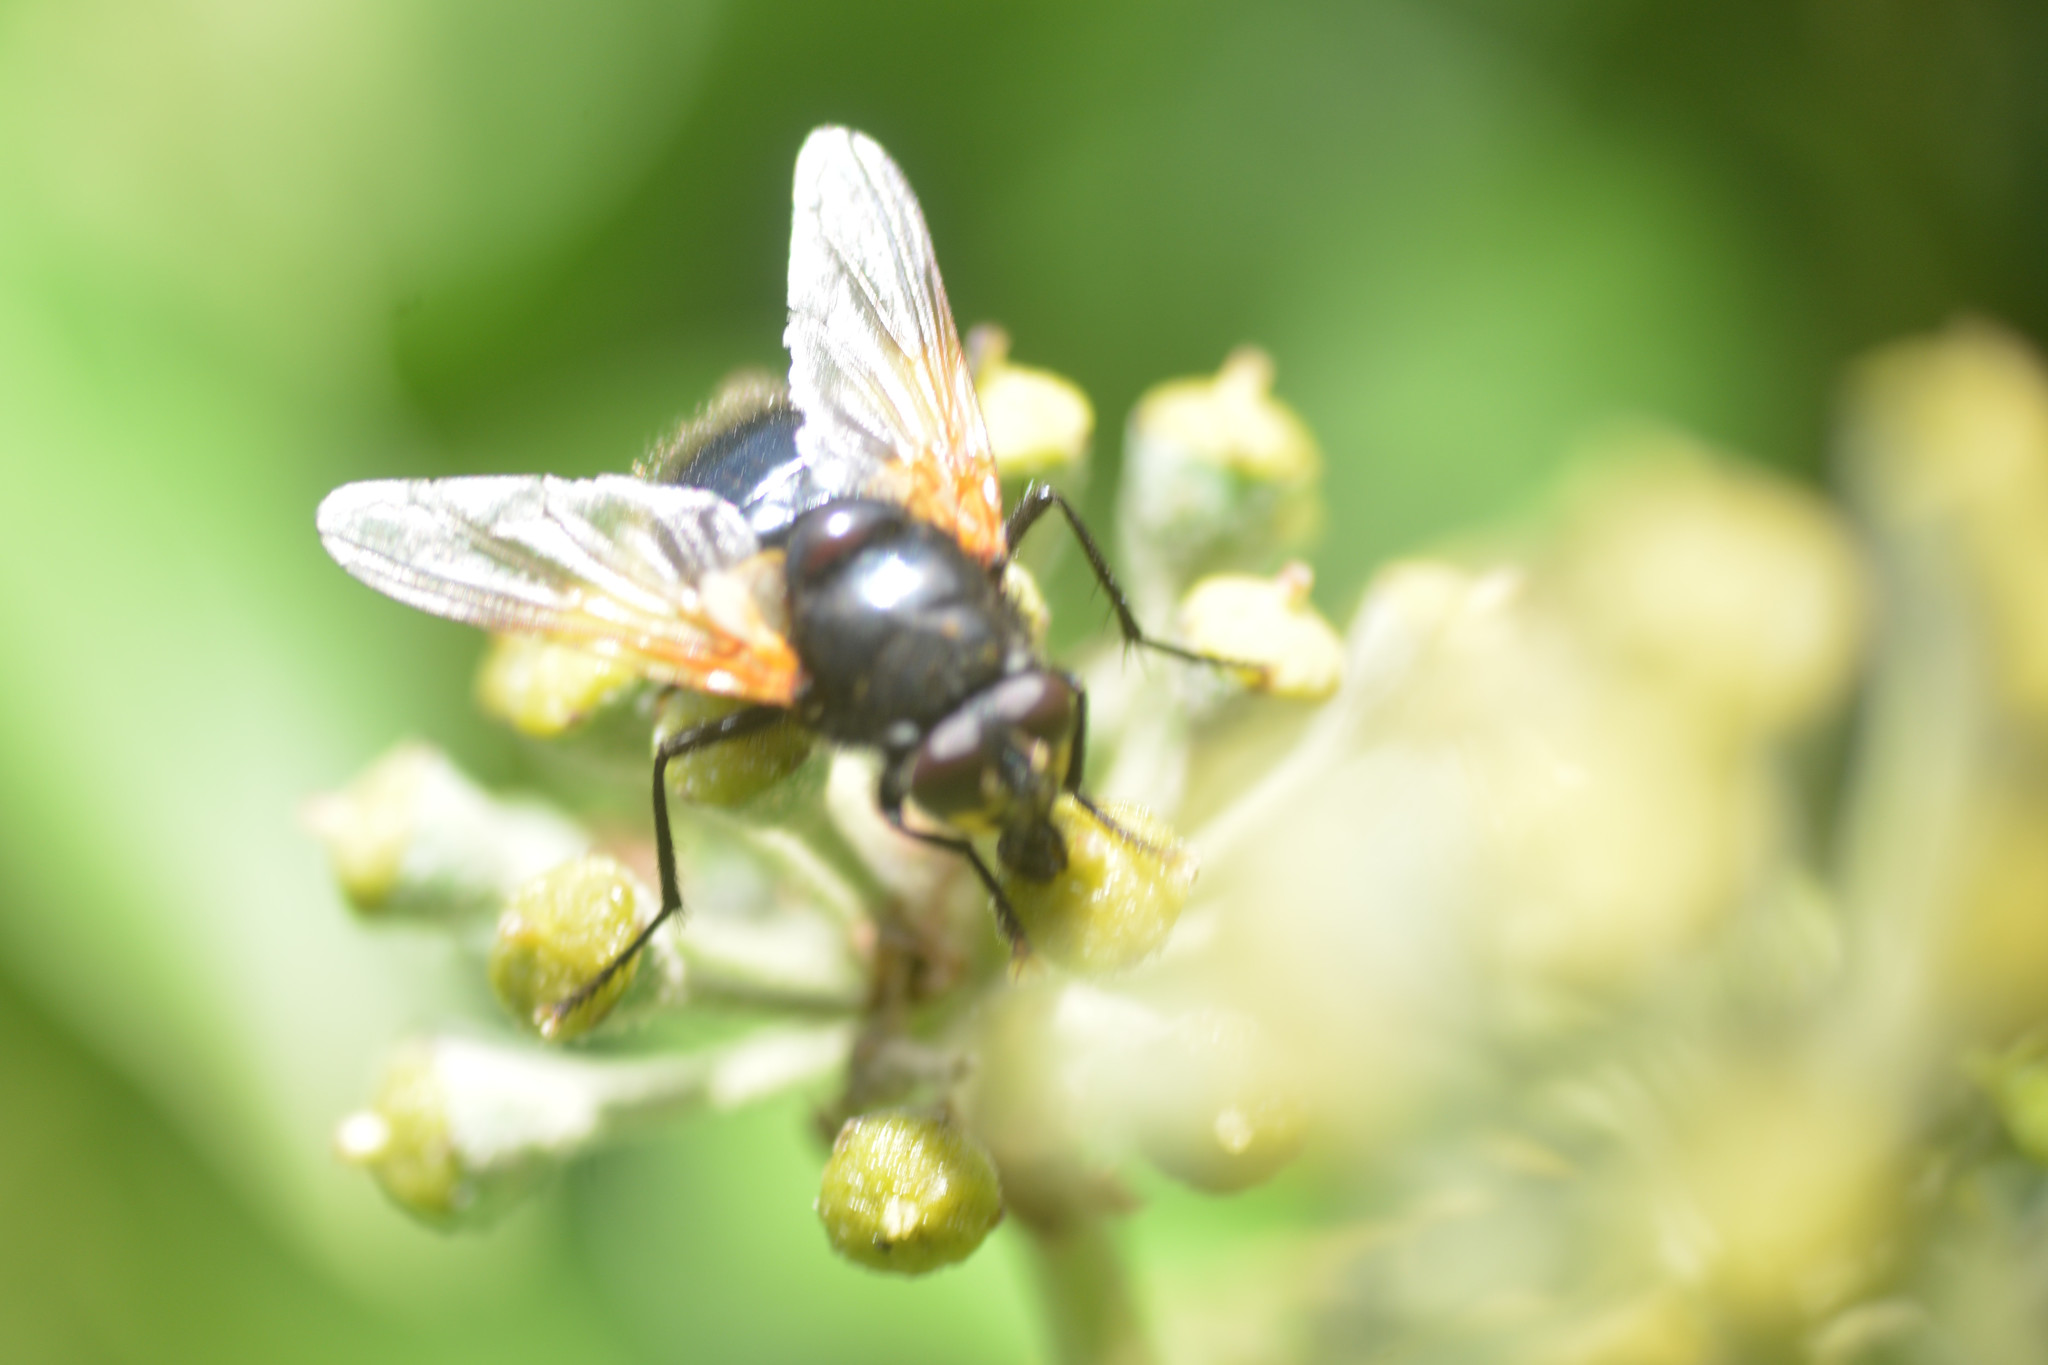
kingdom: Animalia
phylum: Arthropoda
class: Insecta
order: Diptera
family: Muscidae
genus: Mesembrina
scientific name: Mesembrina meridiana
